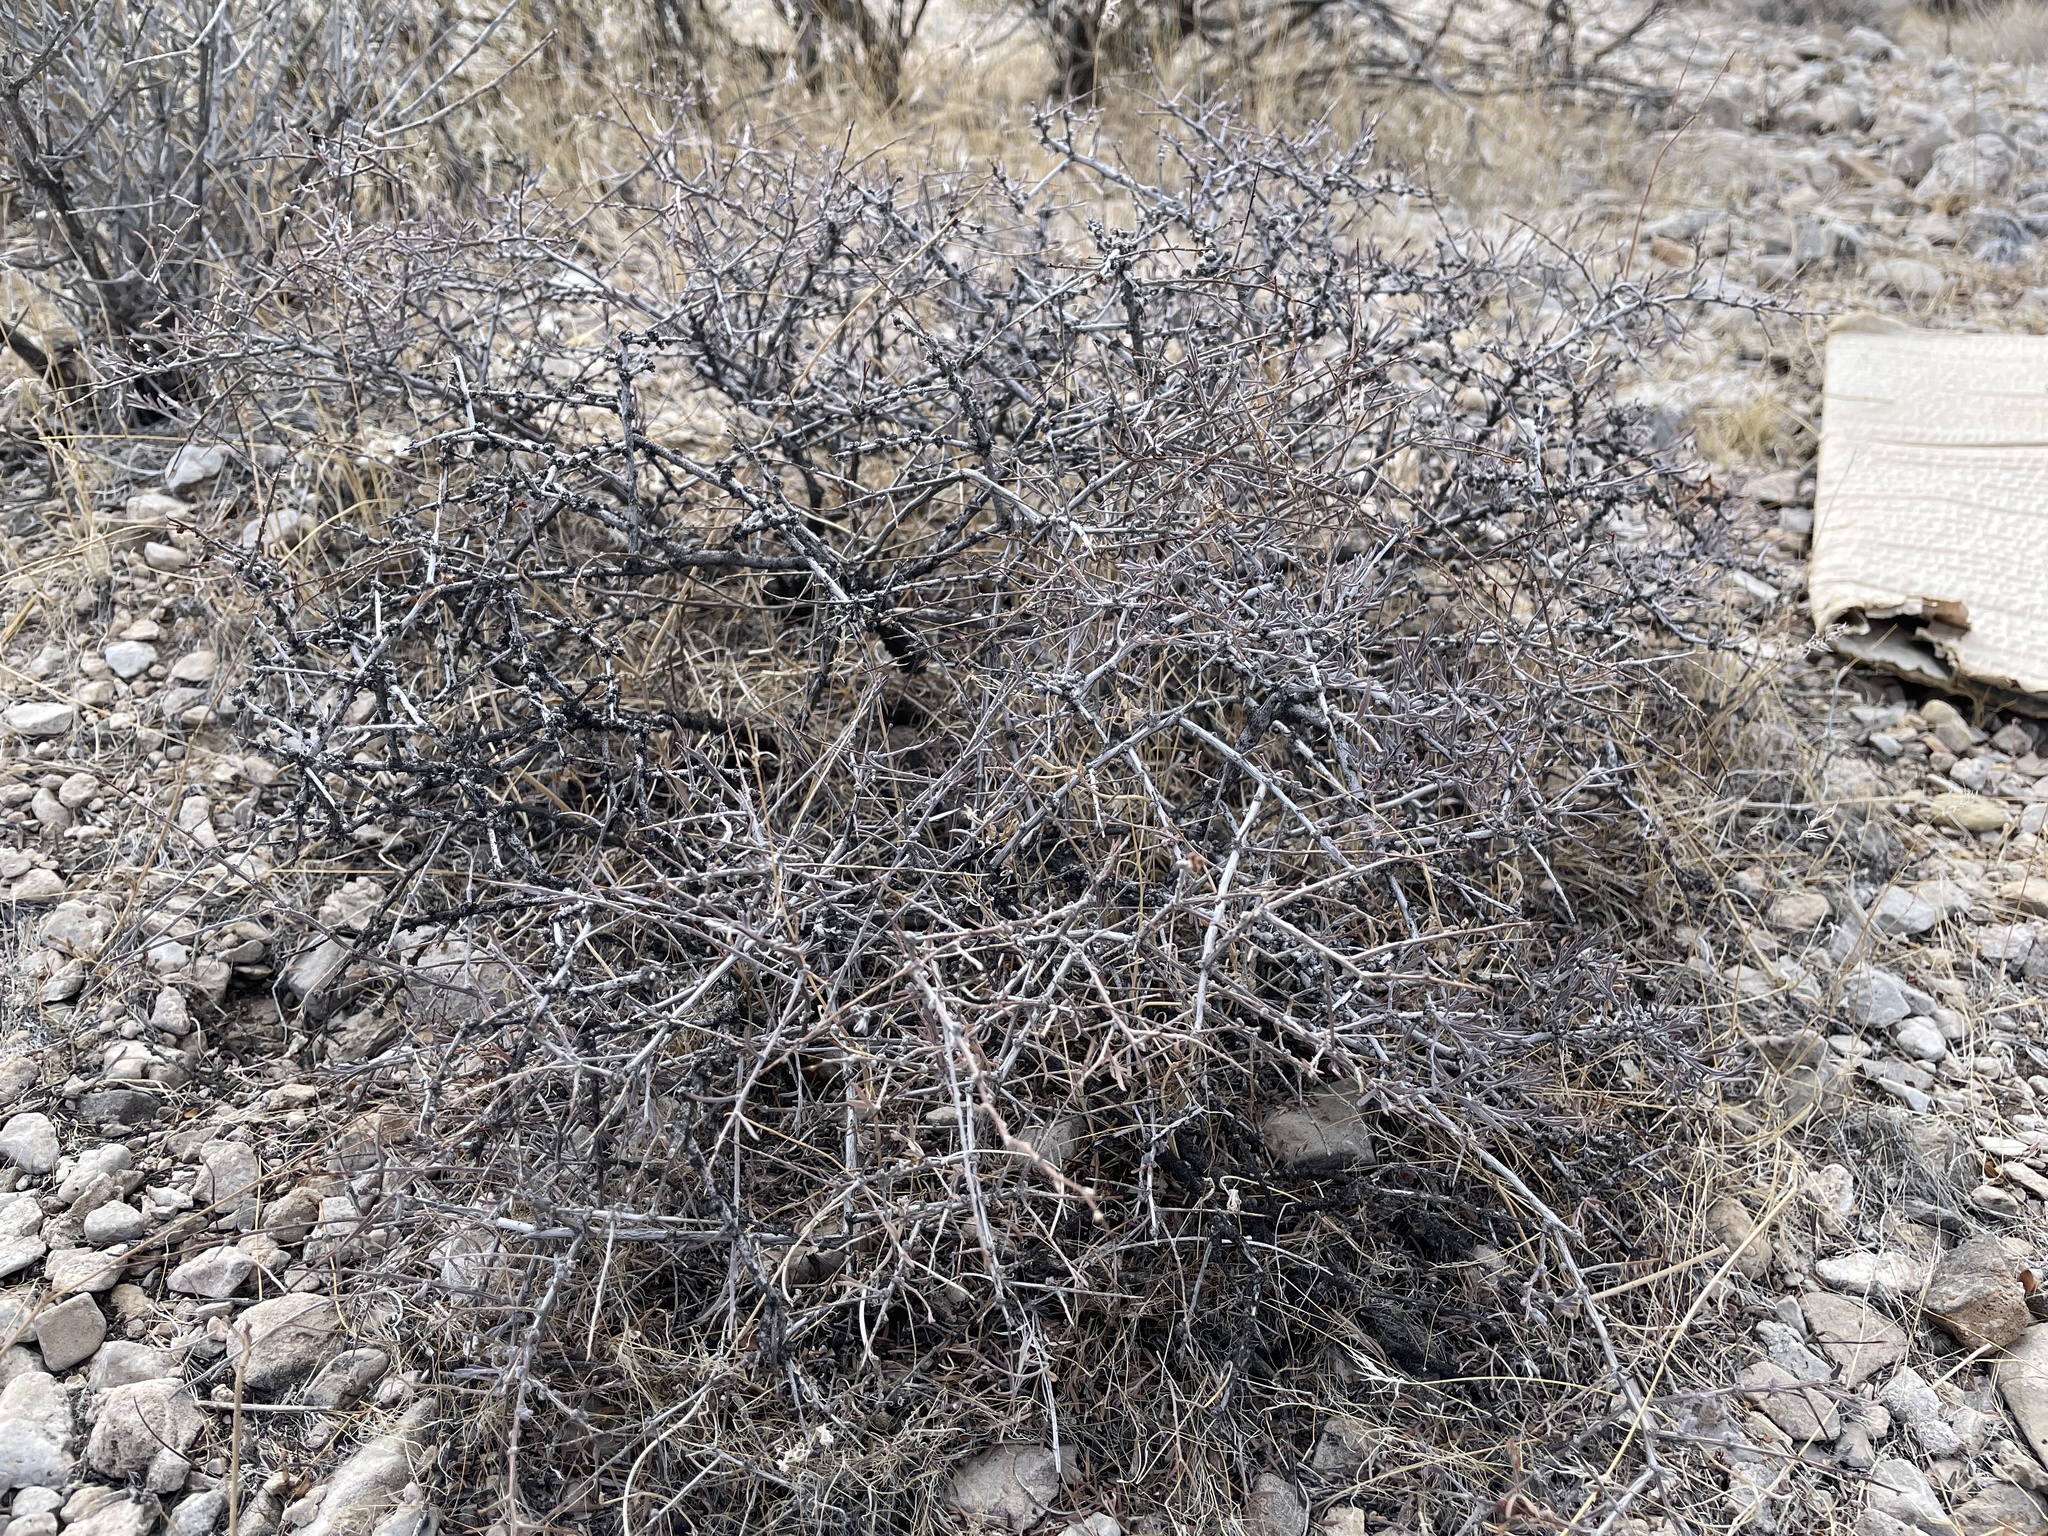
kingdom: Plantae
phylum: Tracheophyta
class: Magnoliopsida
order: Zygophyllales
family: Krameriaceae
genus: Krameria
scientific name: Krameria erecta
